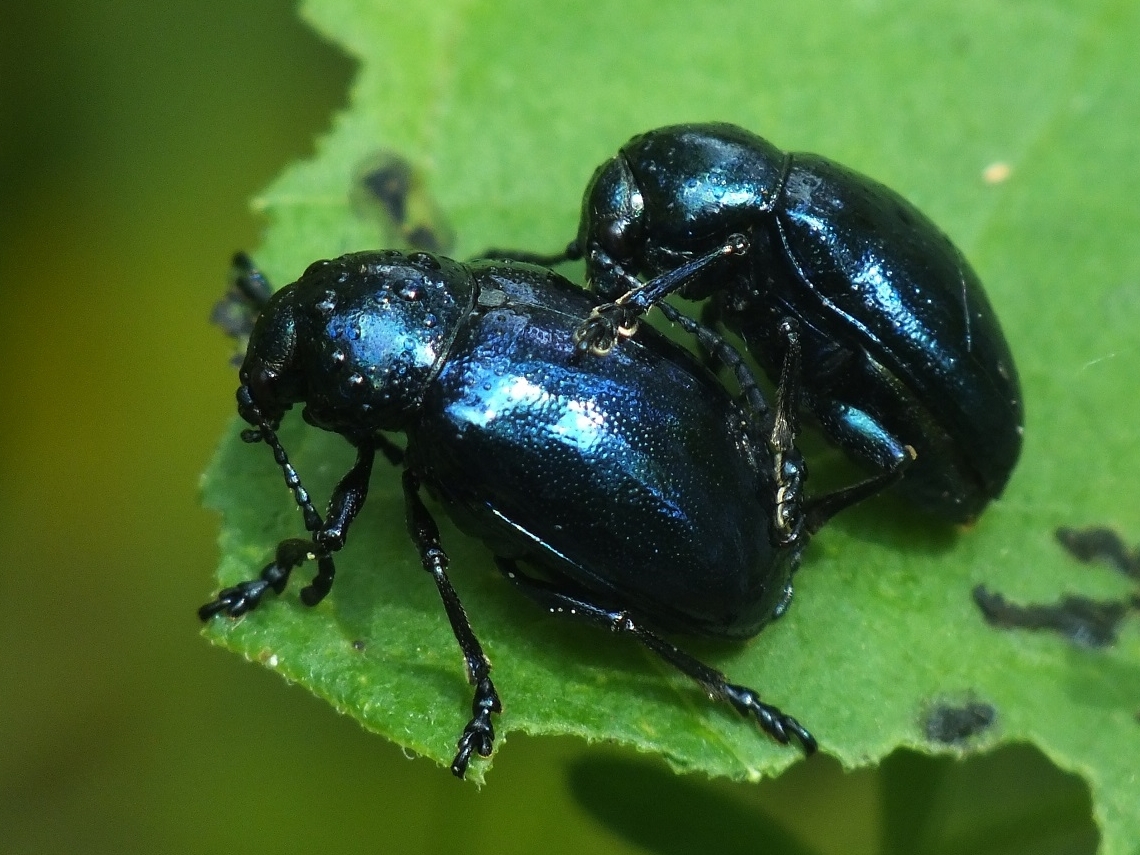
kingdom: Animalia
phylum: Arthropoda
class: Insecta
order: Coleoptera
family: Chrysomelidae
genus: Chrysochus
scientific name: Chrysochus asclepiadeus
